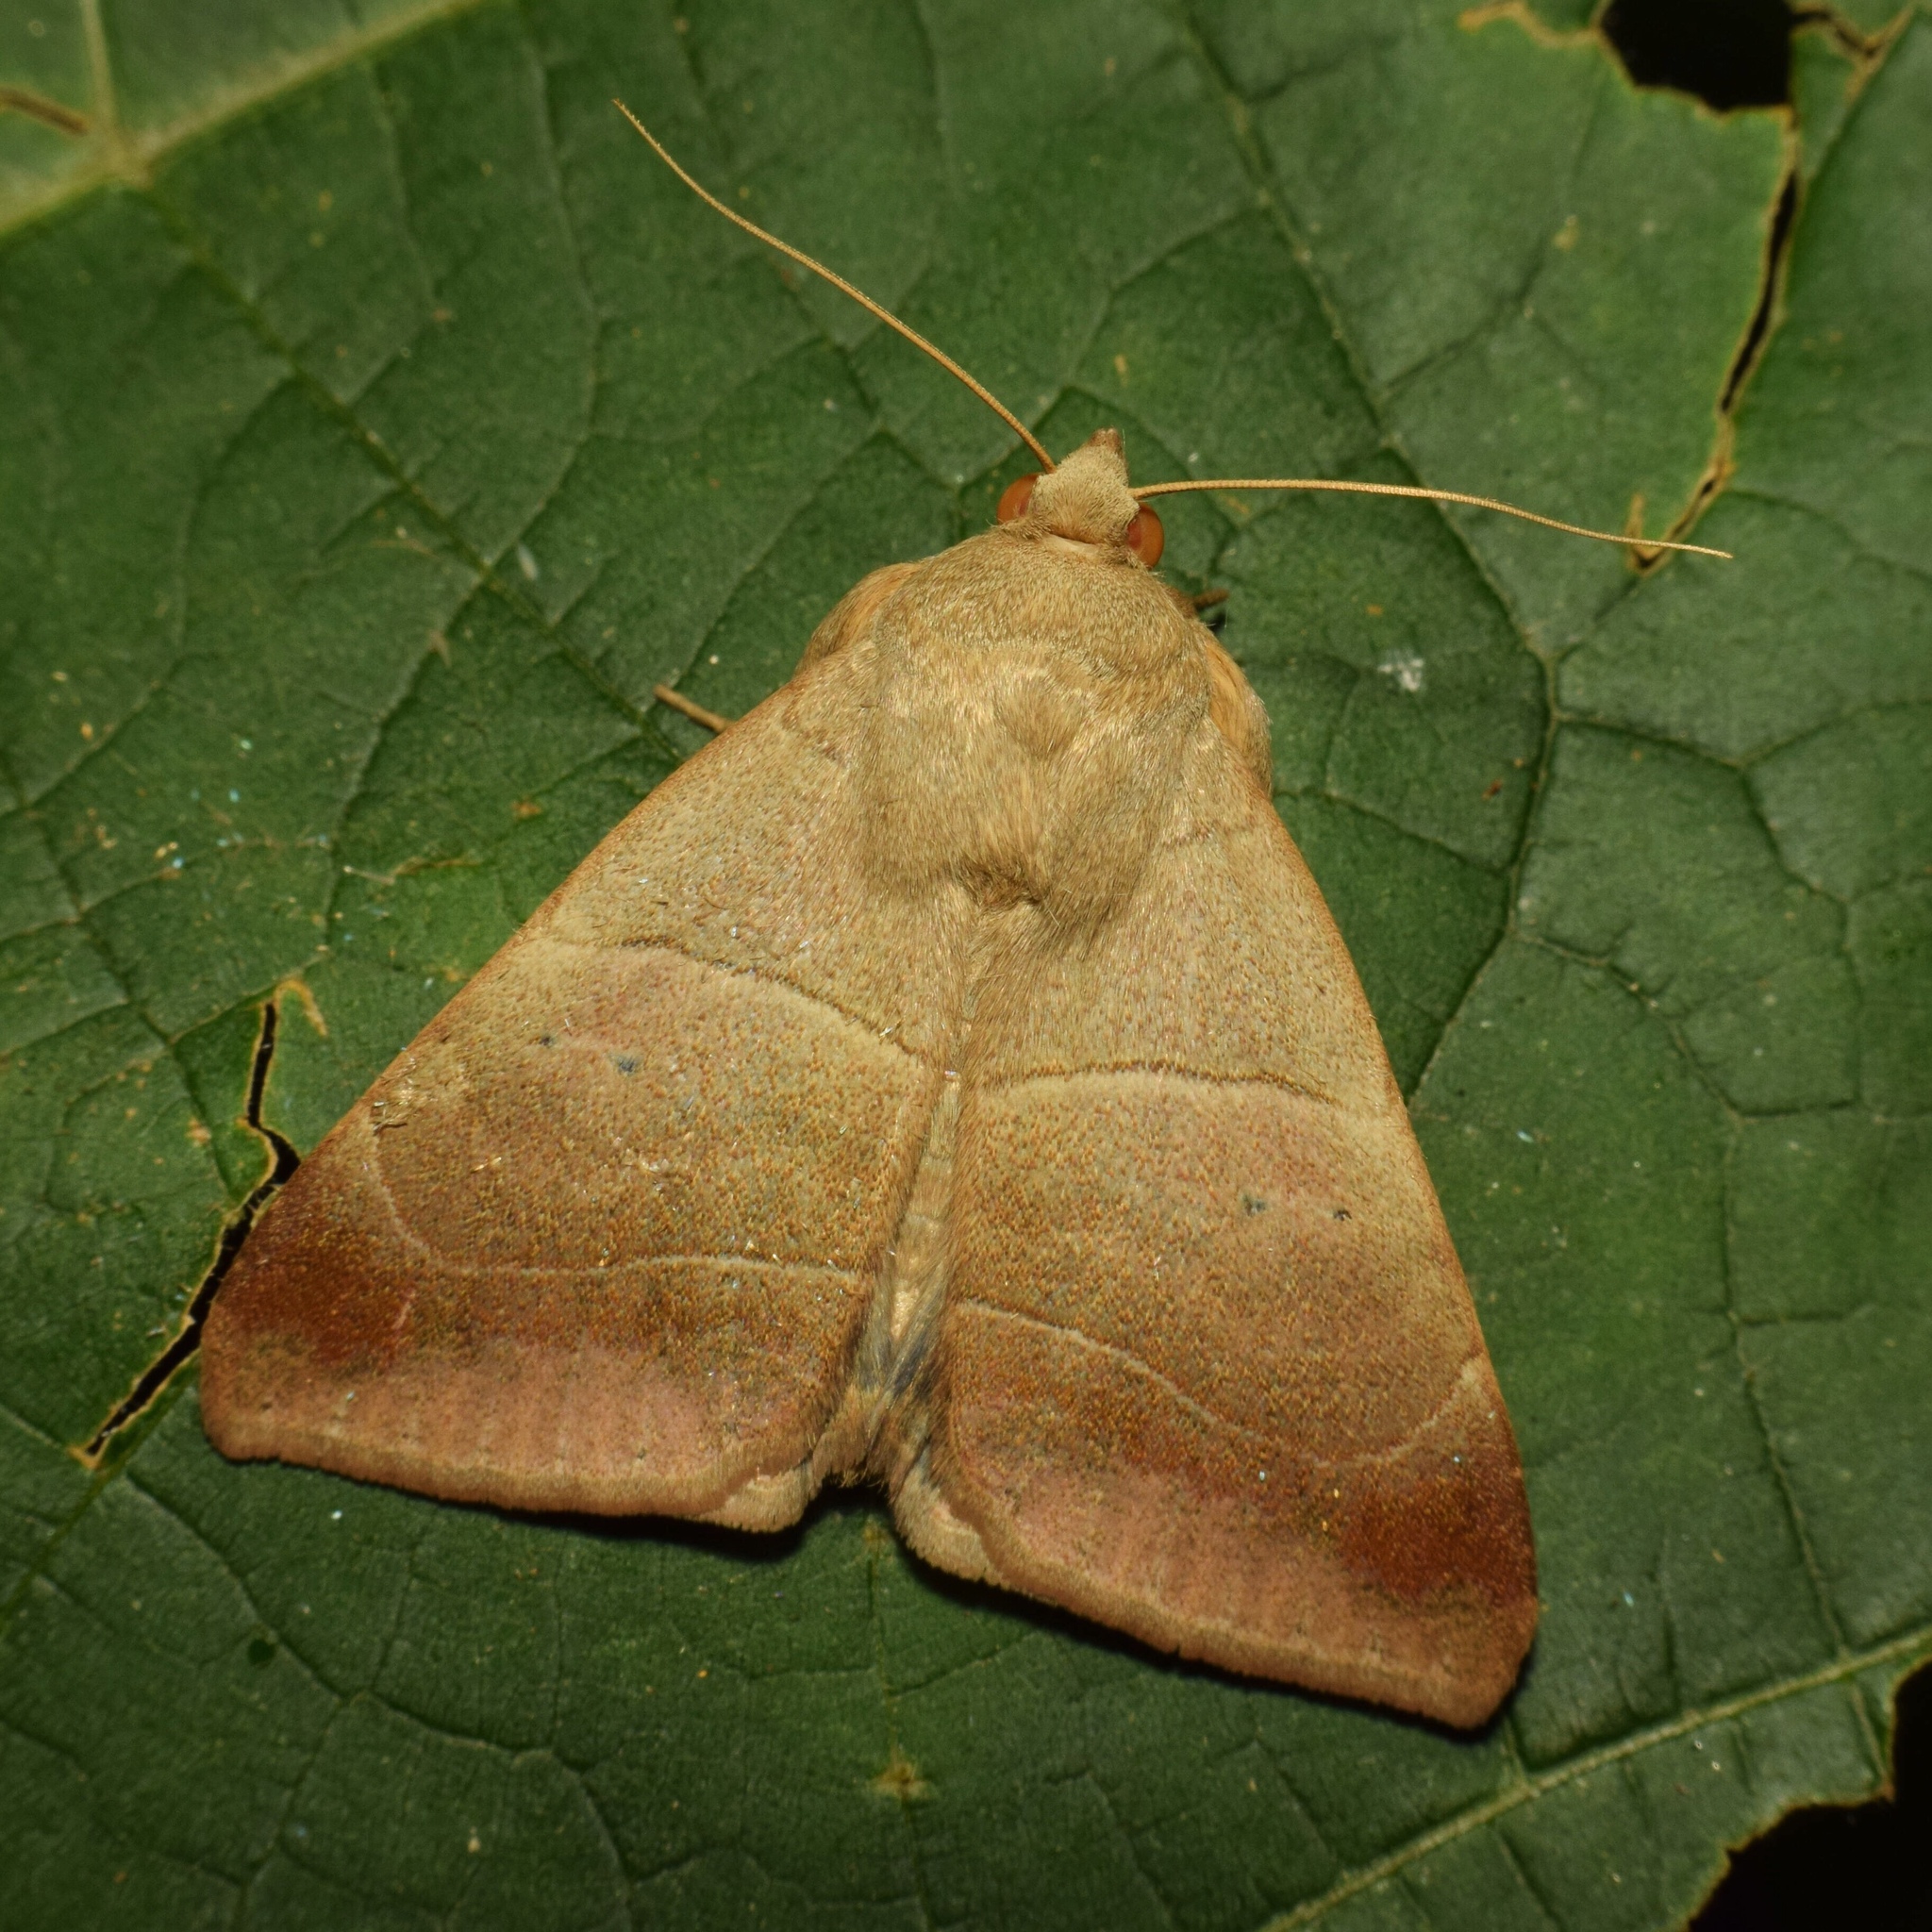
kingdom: Animalia
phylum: Arthropoda
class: Insecta
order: Lepidoptera
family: Erebidae
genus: Achaea
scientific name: Achaea indeterminata
